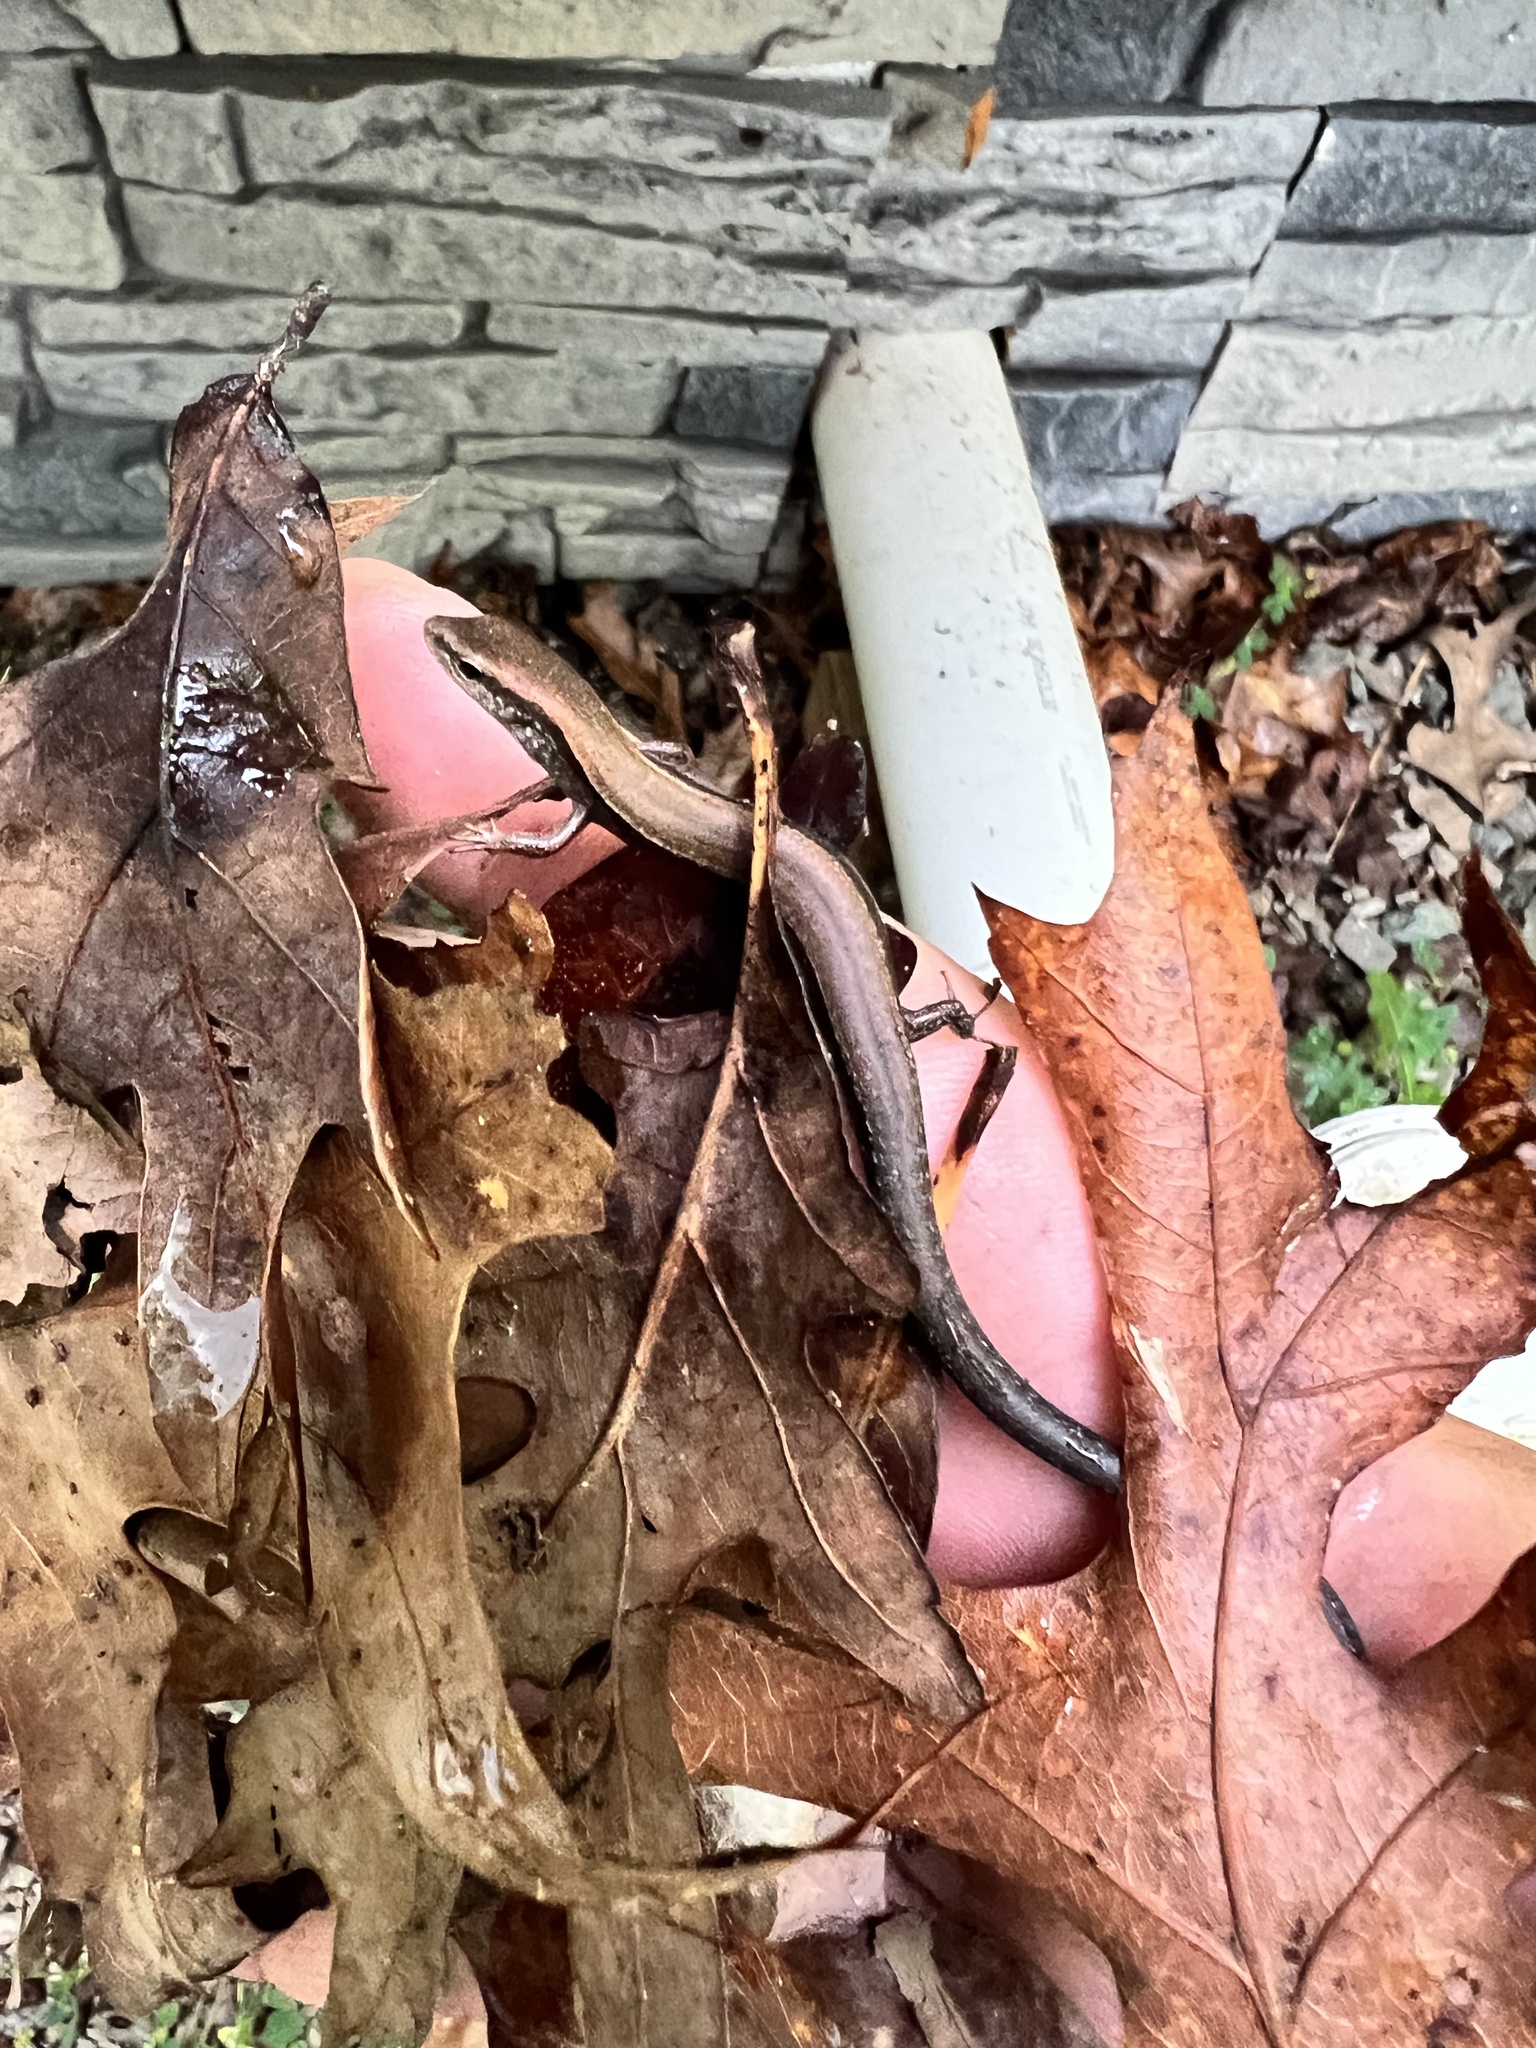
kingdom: Animalia
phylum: Chordata
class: Squamata
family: Scincidae
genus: Scincella
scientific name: Scincella lateralis
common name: Ground skink
